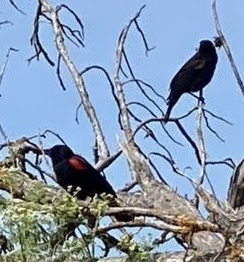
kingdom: Animalia
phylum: Chordata
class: Aves
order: Passeriformes
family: Icteridae
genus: Agelaius
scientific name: Agelaius phoeniceus
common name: Red-winged blackbird
